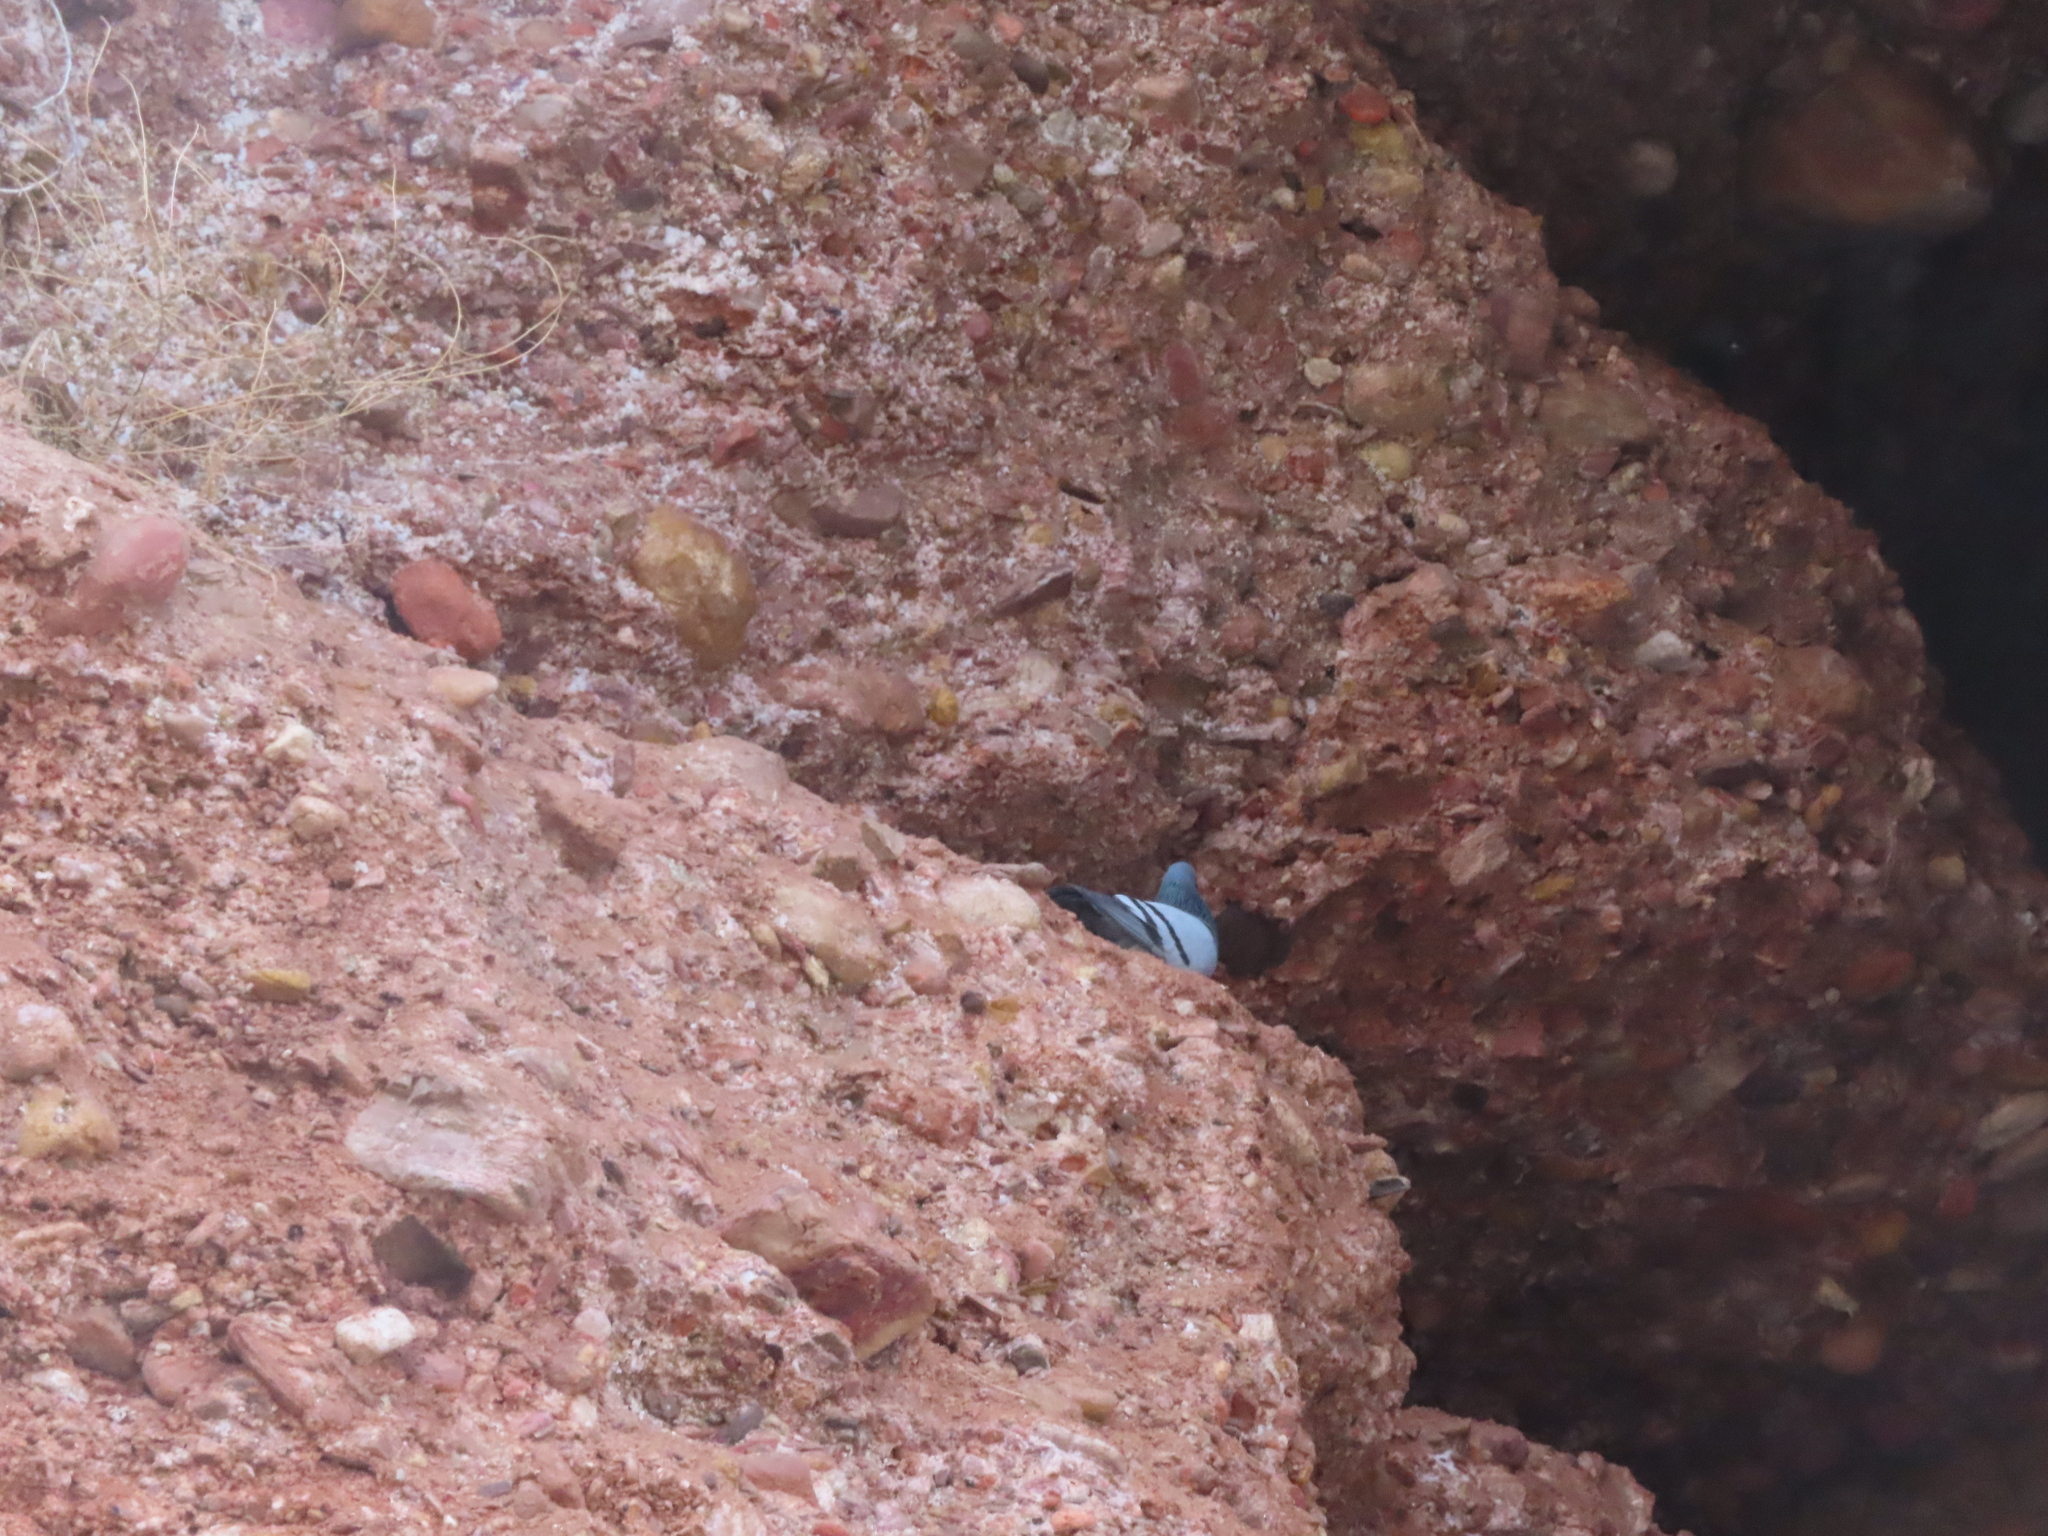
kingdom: Animalia
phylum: Chordata
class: Aves
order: Columbiformes
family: Columbidae
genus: Columba
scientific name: Columba livia
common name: Rock pigeon
